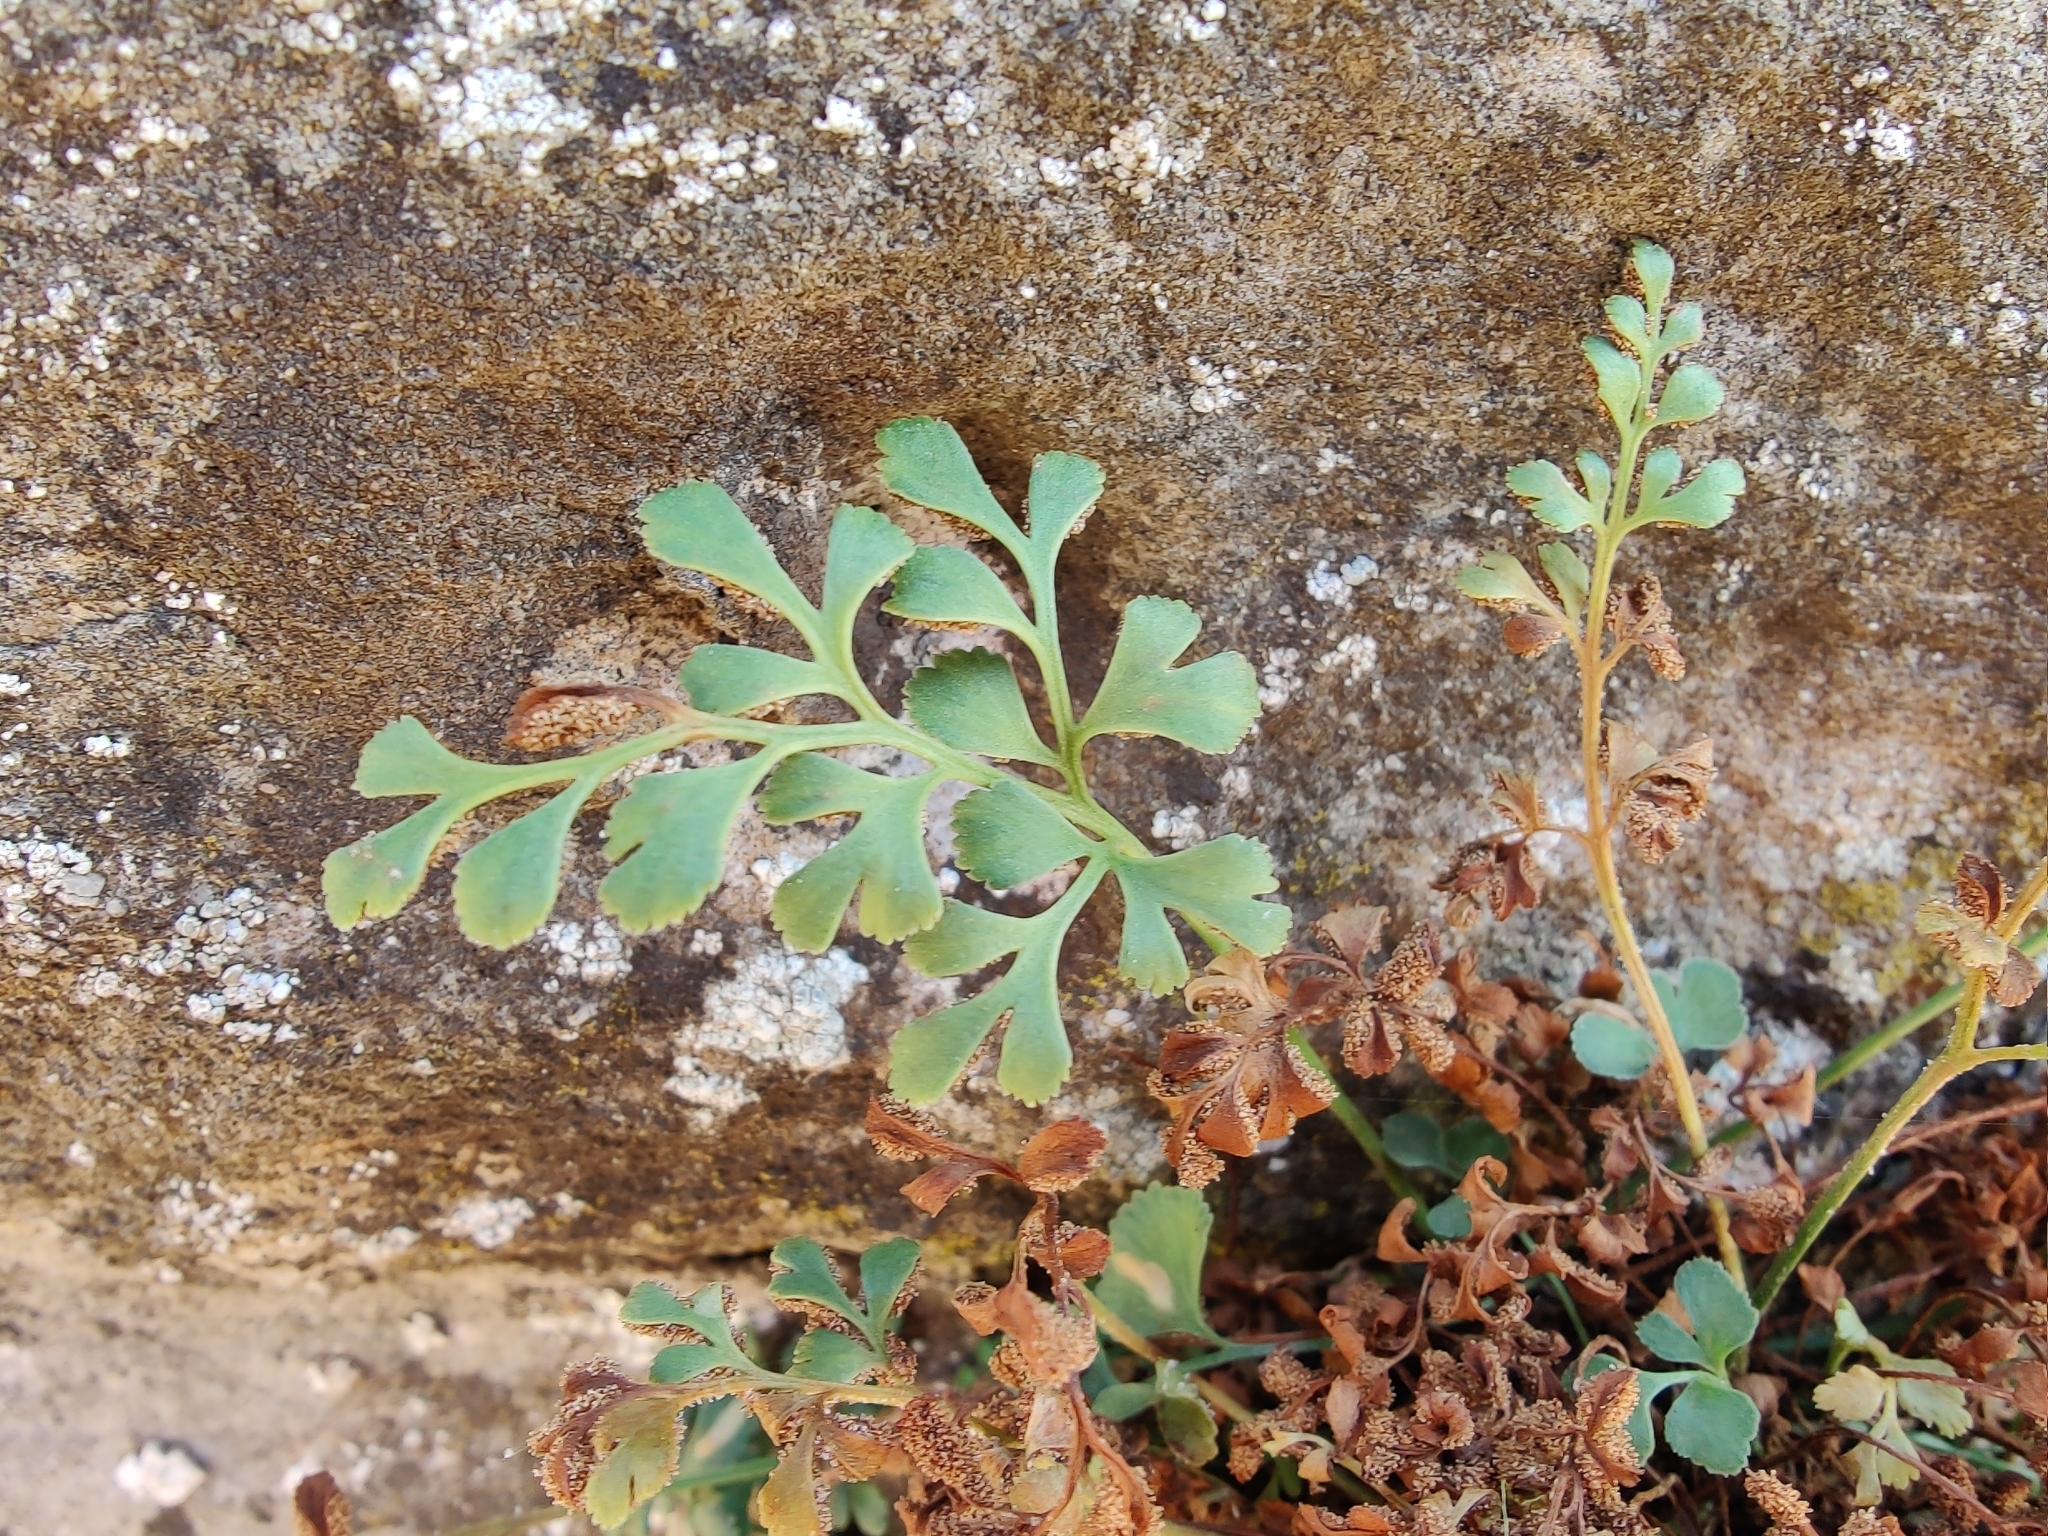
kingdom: Plantae
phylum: Tracheophyta
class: Polypodiopsida
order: Polypodiales
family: Aspleniaceae
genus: Asplenium
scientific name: Asplenium ruta-muraria
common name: Wall-rue
